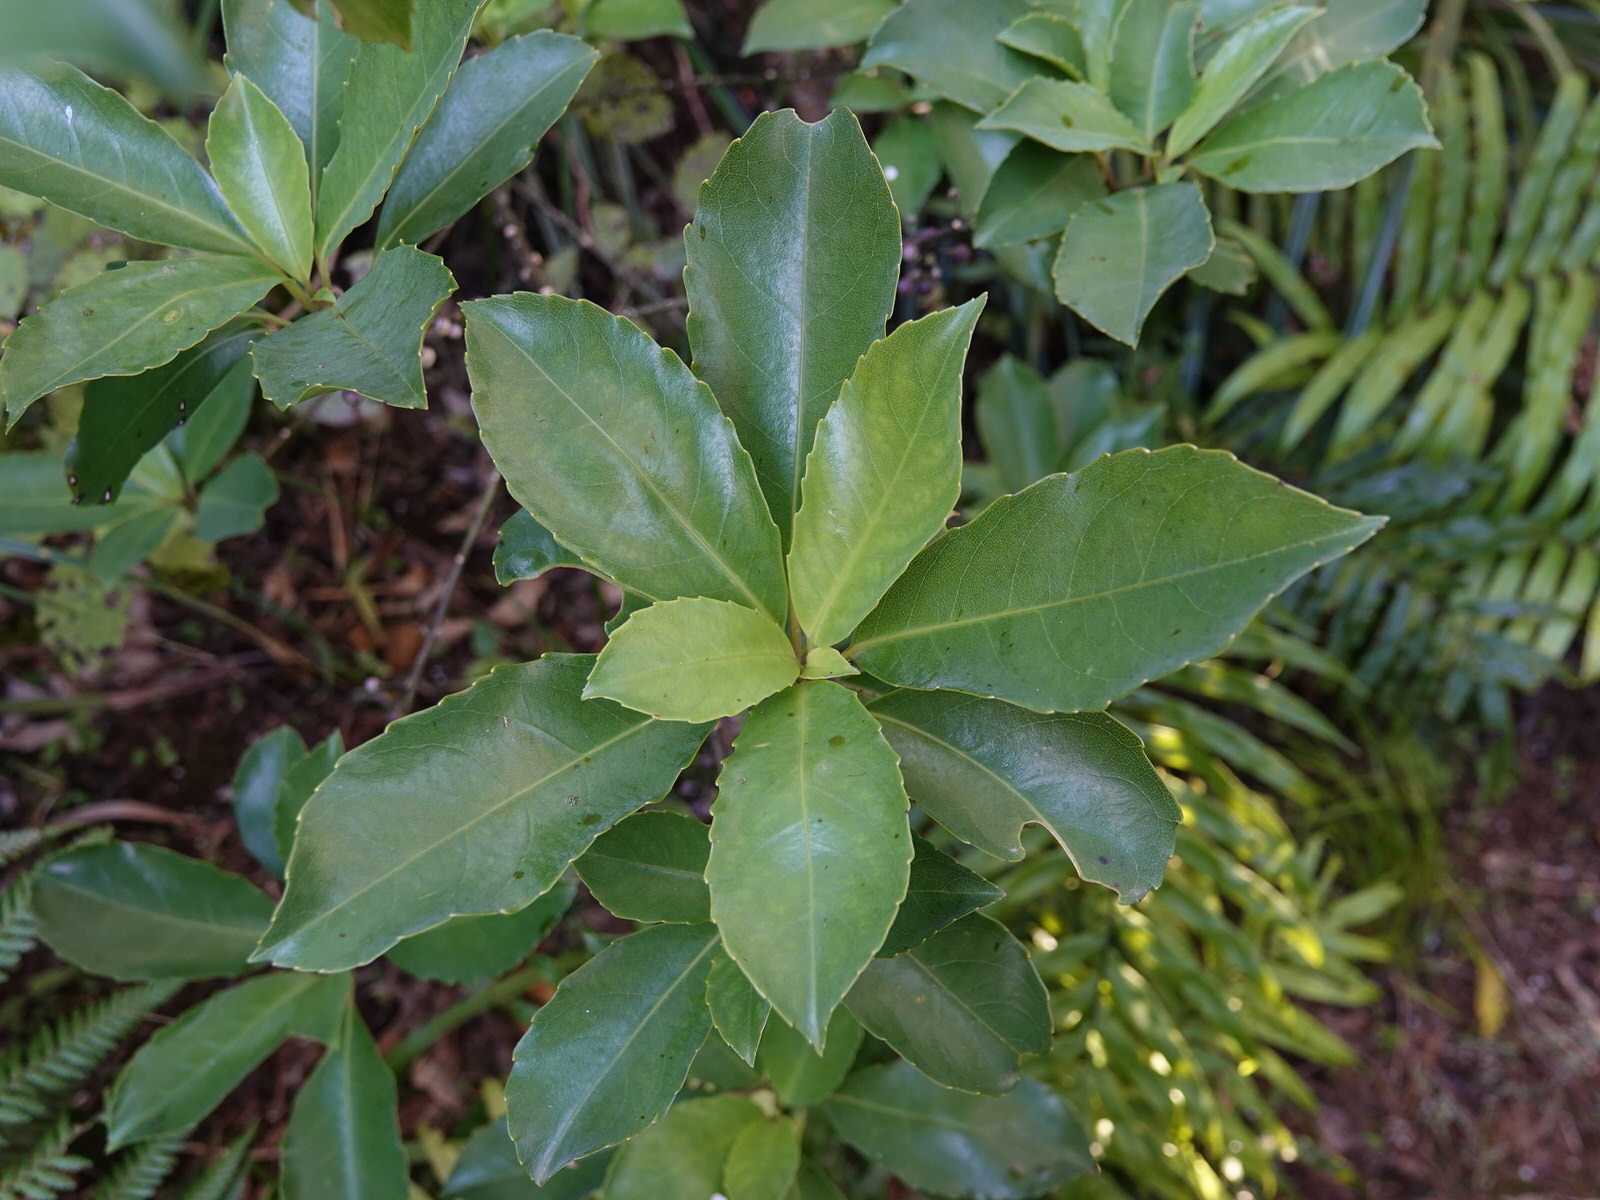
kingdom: Plantae
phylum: Tracheophyta
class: Magnoliopsida
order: Malpighiales
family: Violaceae
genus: Melicytus
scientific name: Melicytus macrophyllus
